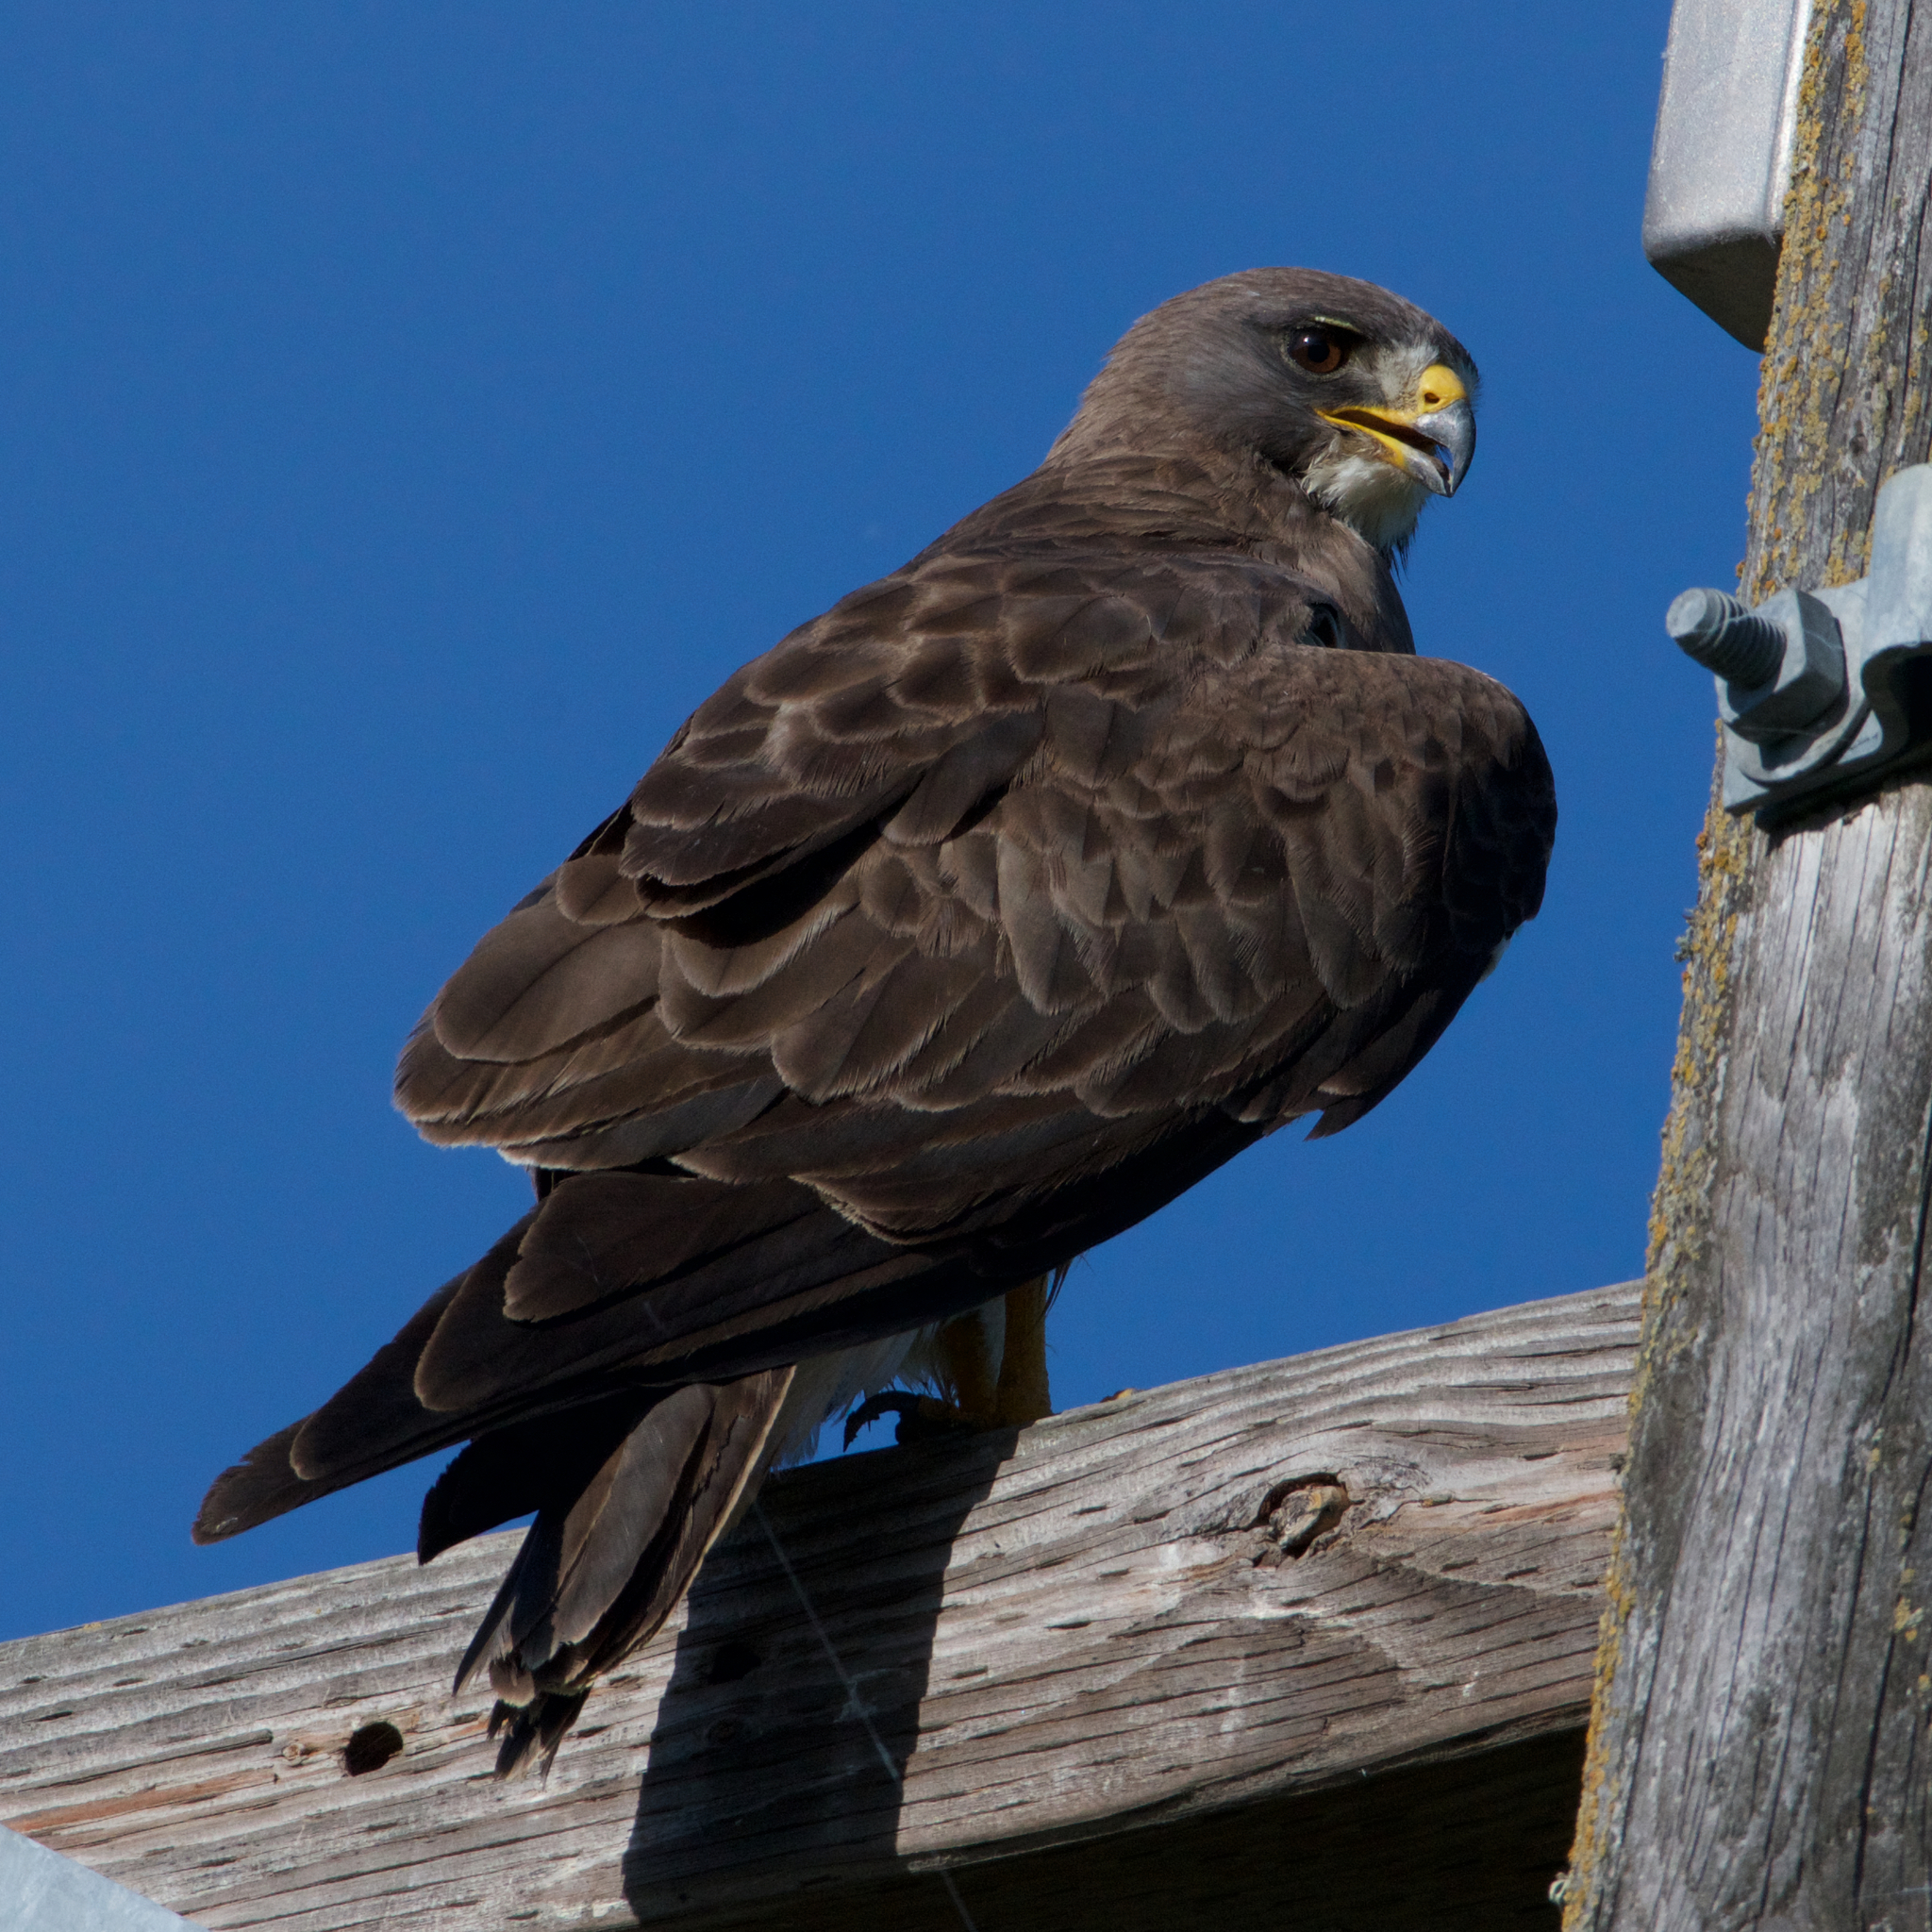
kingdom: Animalia
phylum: Chordata
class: Aves
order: Accipitriformes
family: Accipitridae
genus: Buteo
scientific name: Buteo swainsoni
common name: Swainson's hawk
